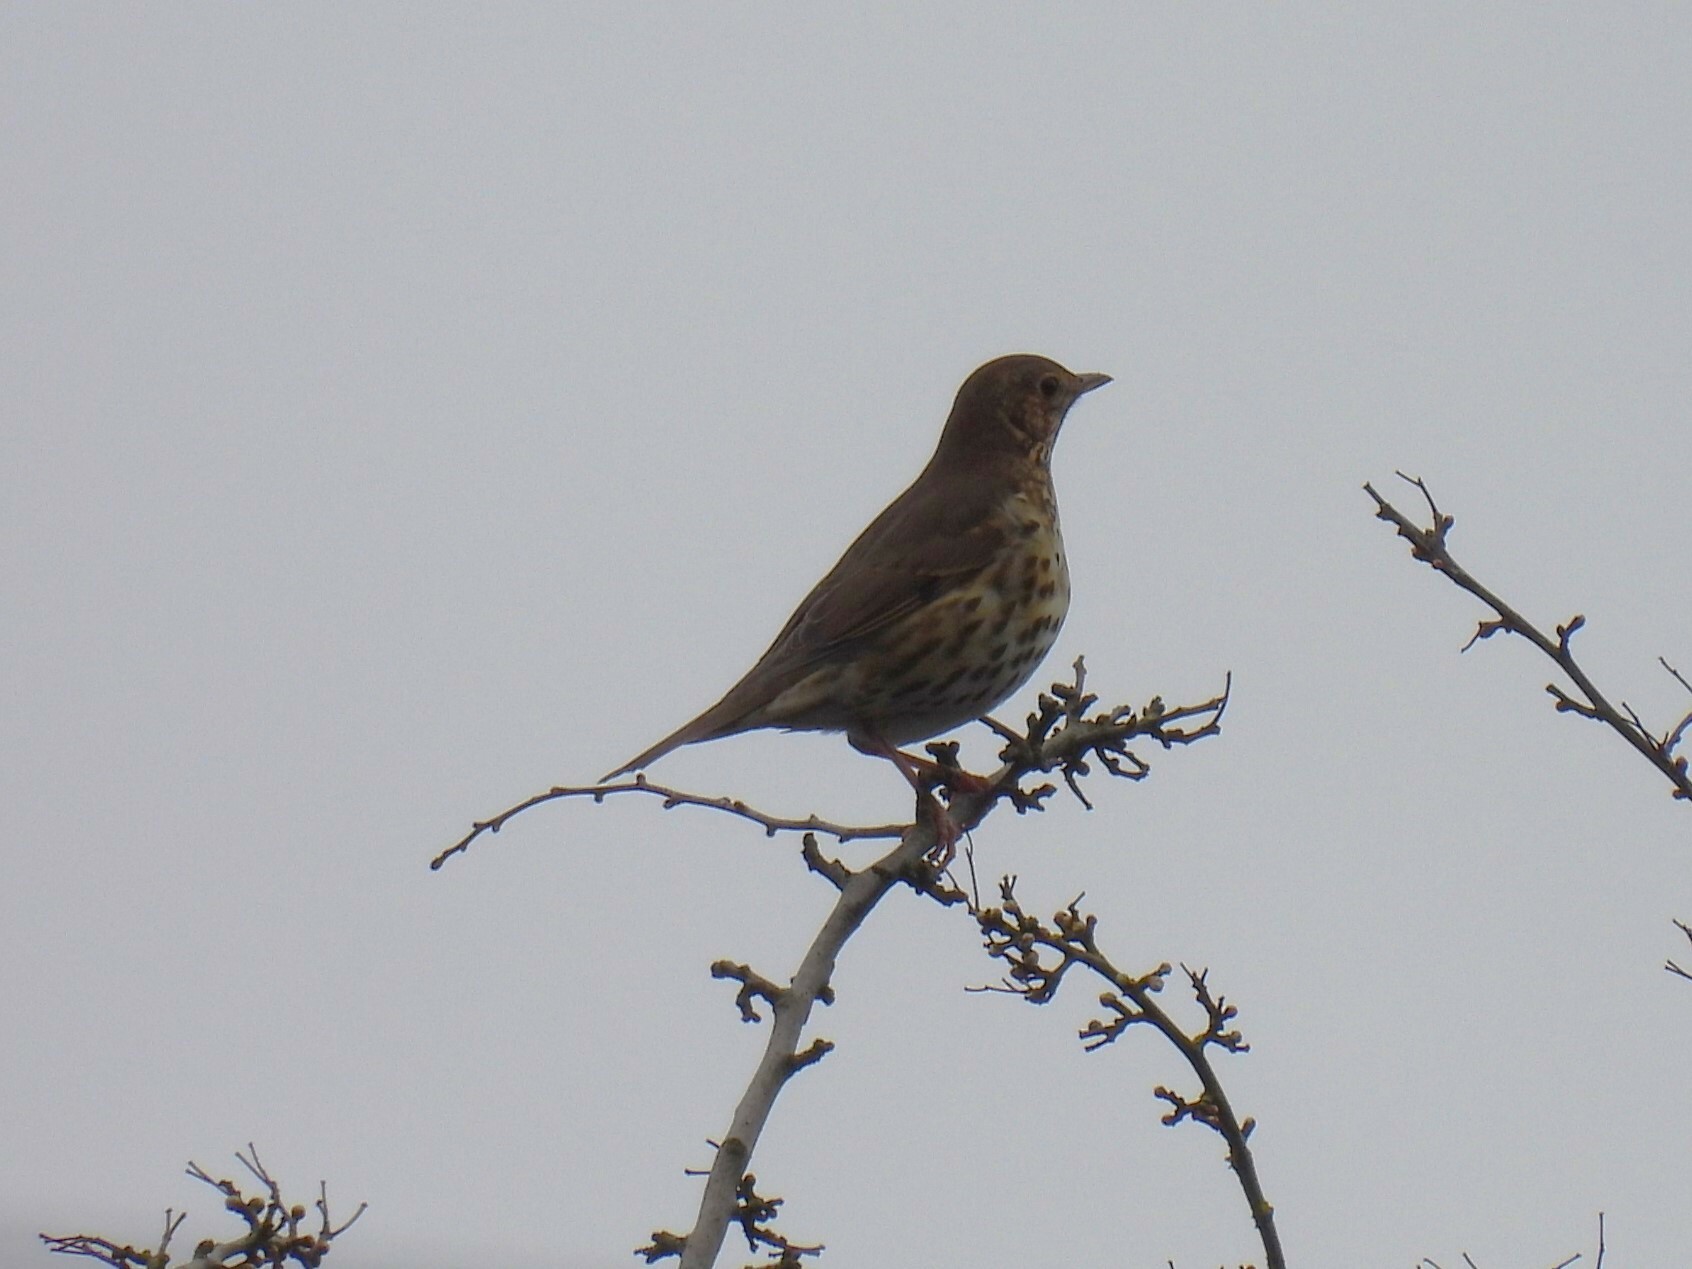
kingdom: Animalia
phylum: Chordata
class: Aves
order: Passeriformes
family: Turdidae
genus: Turdus
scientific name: Turdus philomelos
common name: Song thrush
